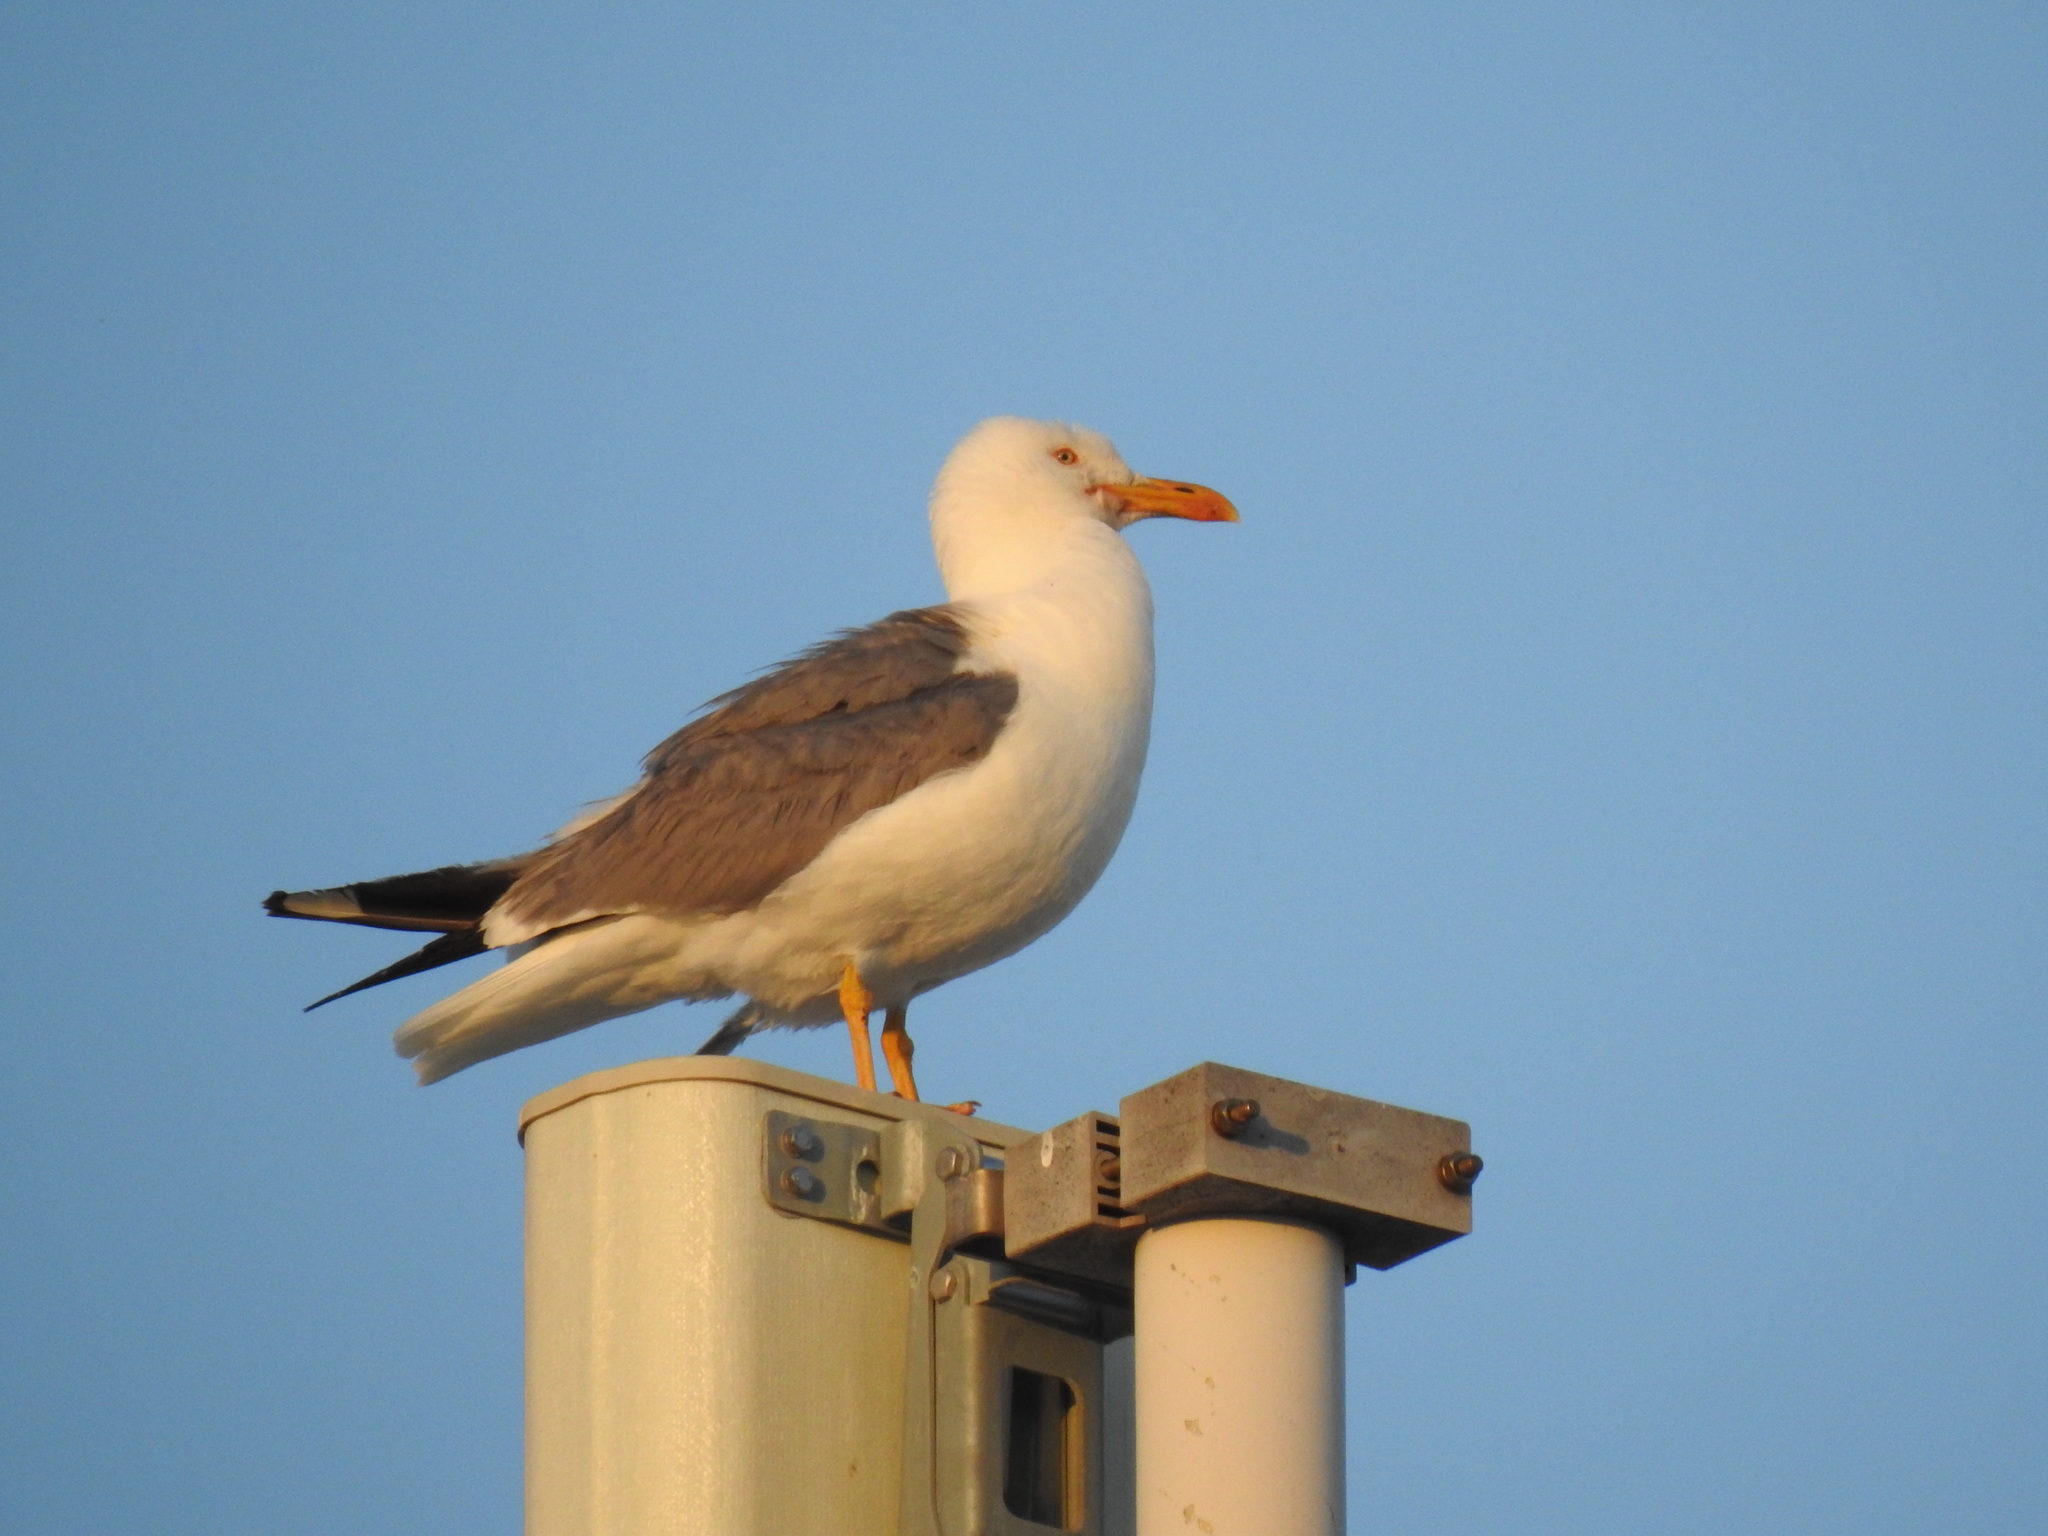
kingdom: Animalia
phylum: Chordata
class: Aves
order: Charadriiformes
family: Laridae
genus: Larus
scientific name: Larus michahellis
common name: Yellow-legged gull
